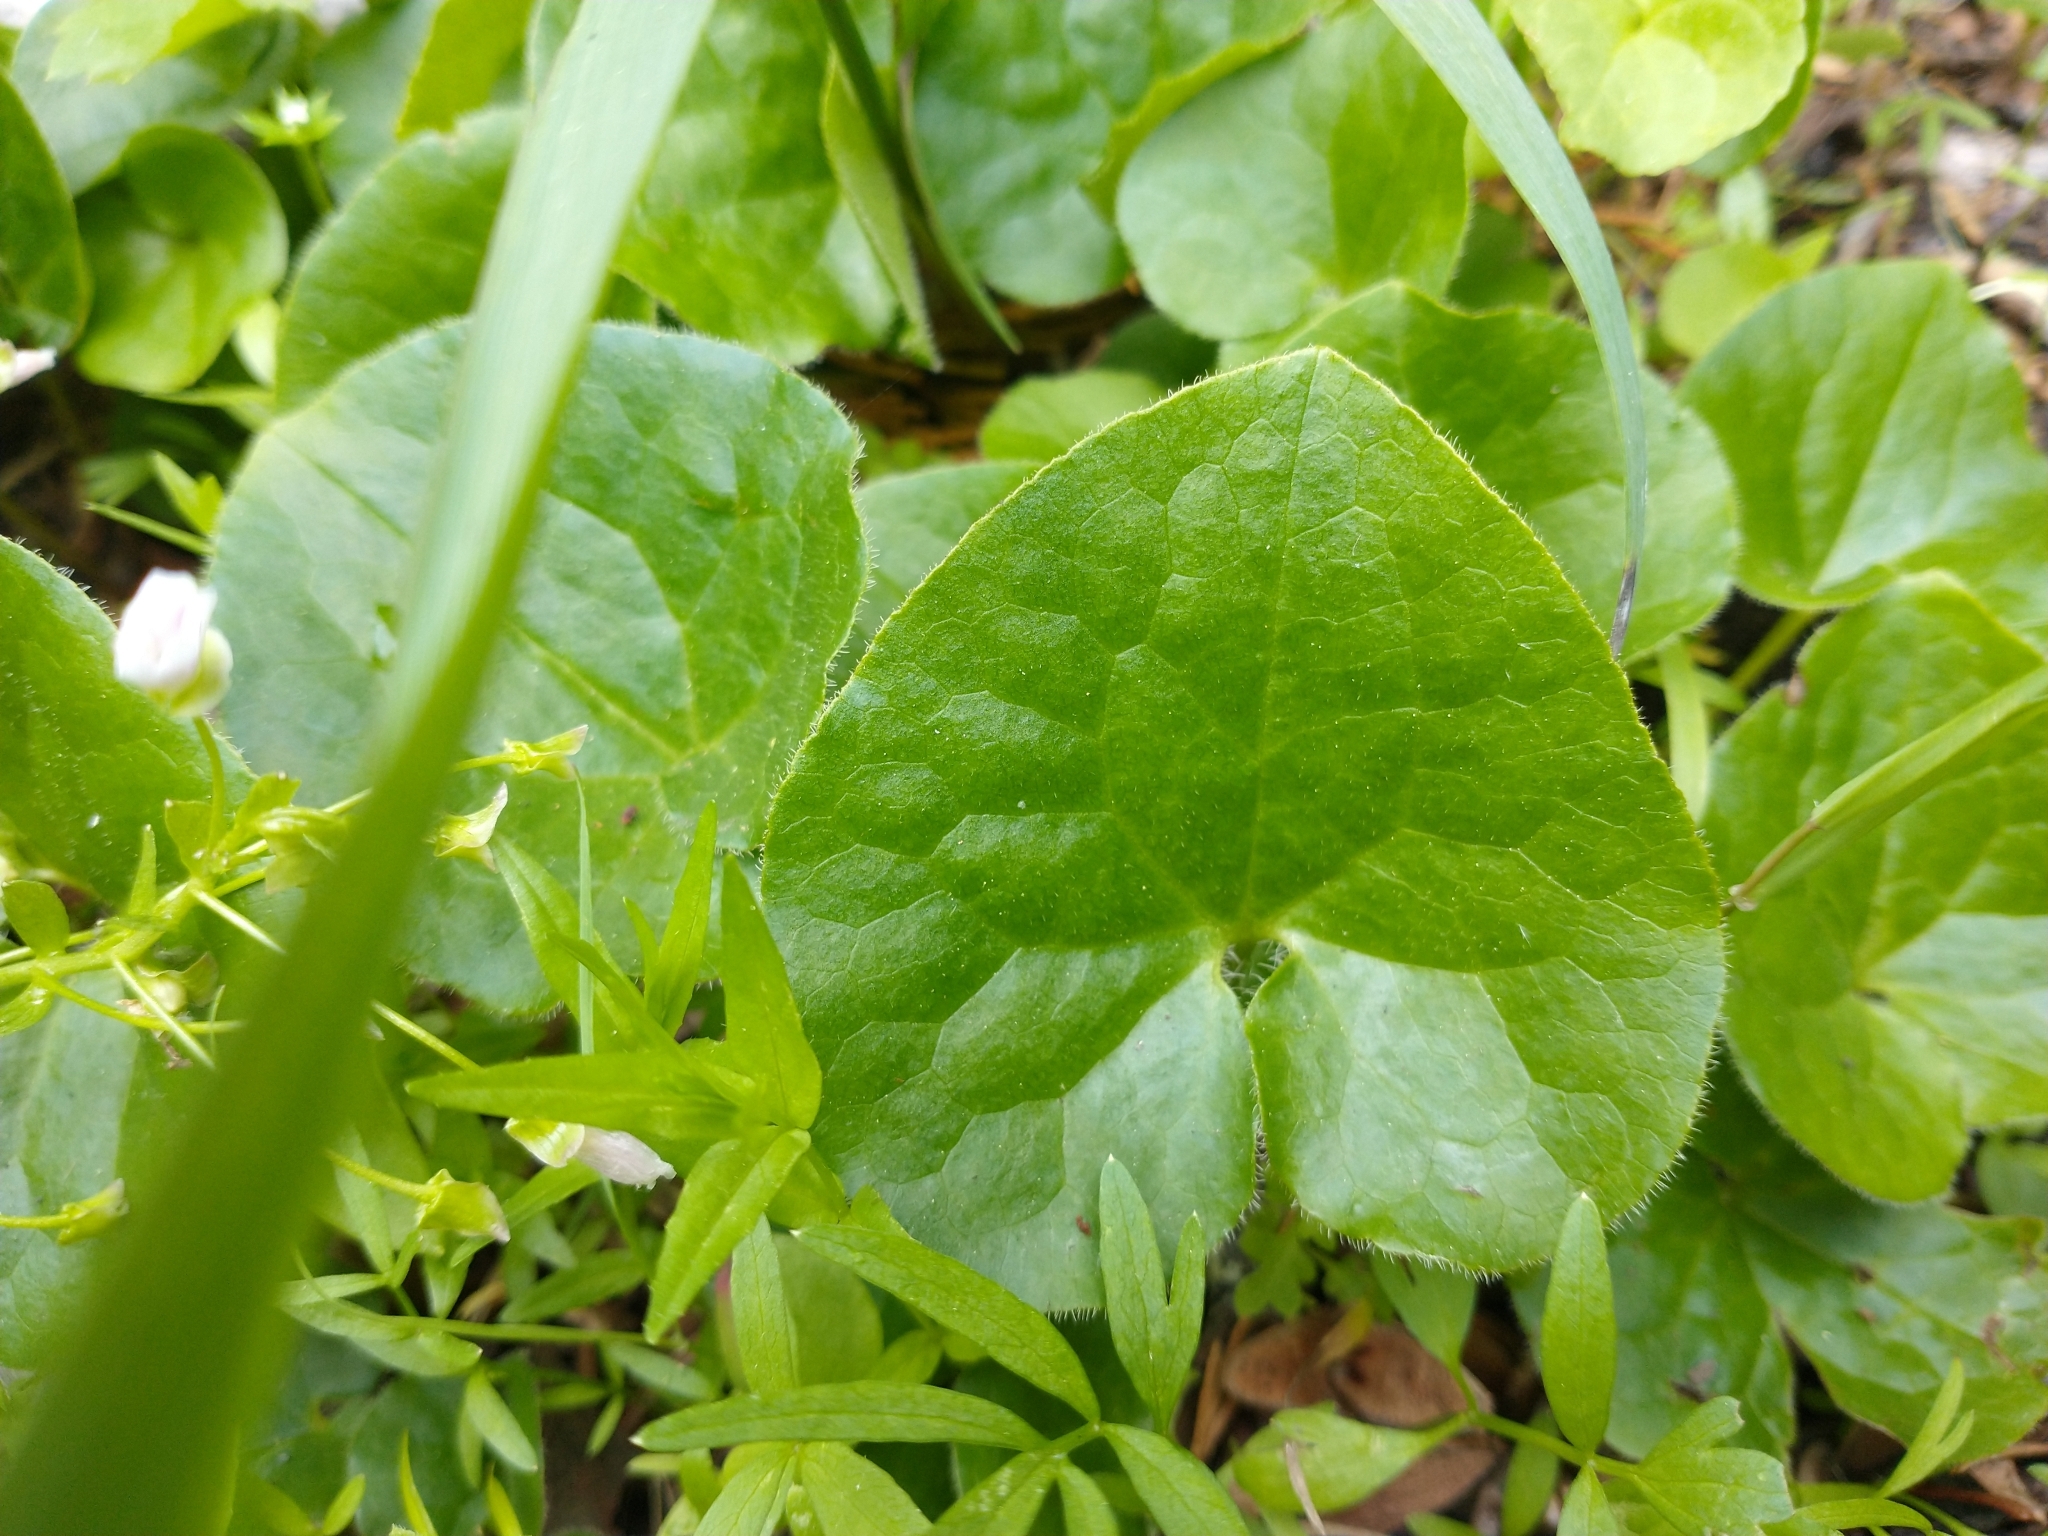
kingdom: Plantae
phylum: Tracheophyta
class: Magnoliopsida
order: Piperales
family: Aristolochiaceae
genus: Asarum
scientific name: Asarum caudatum
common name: Wild ginger
